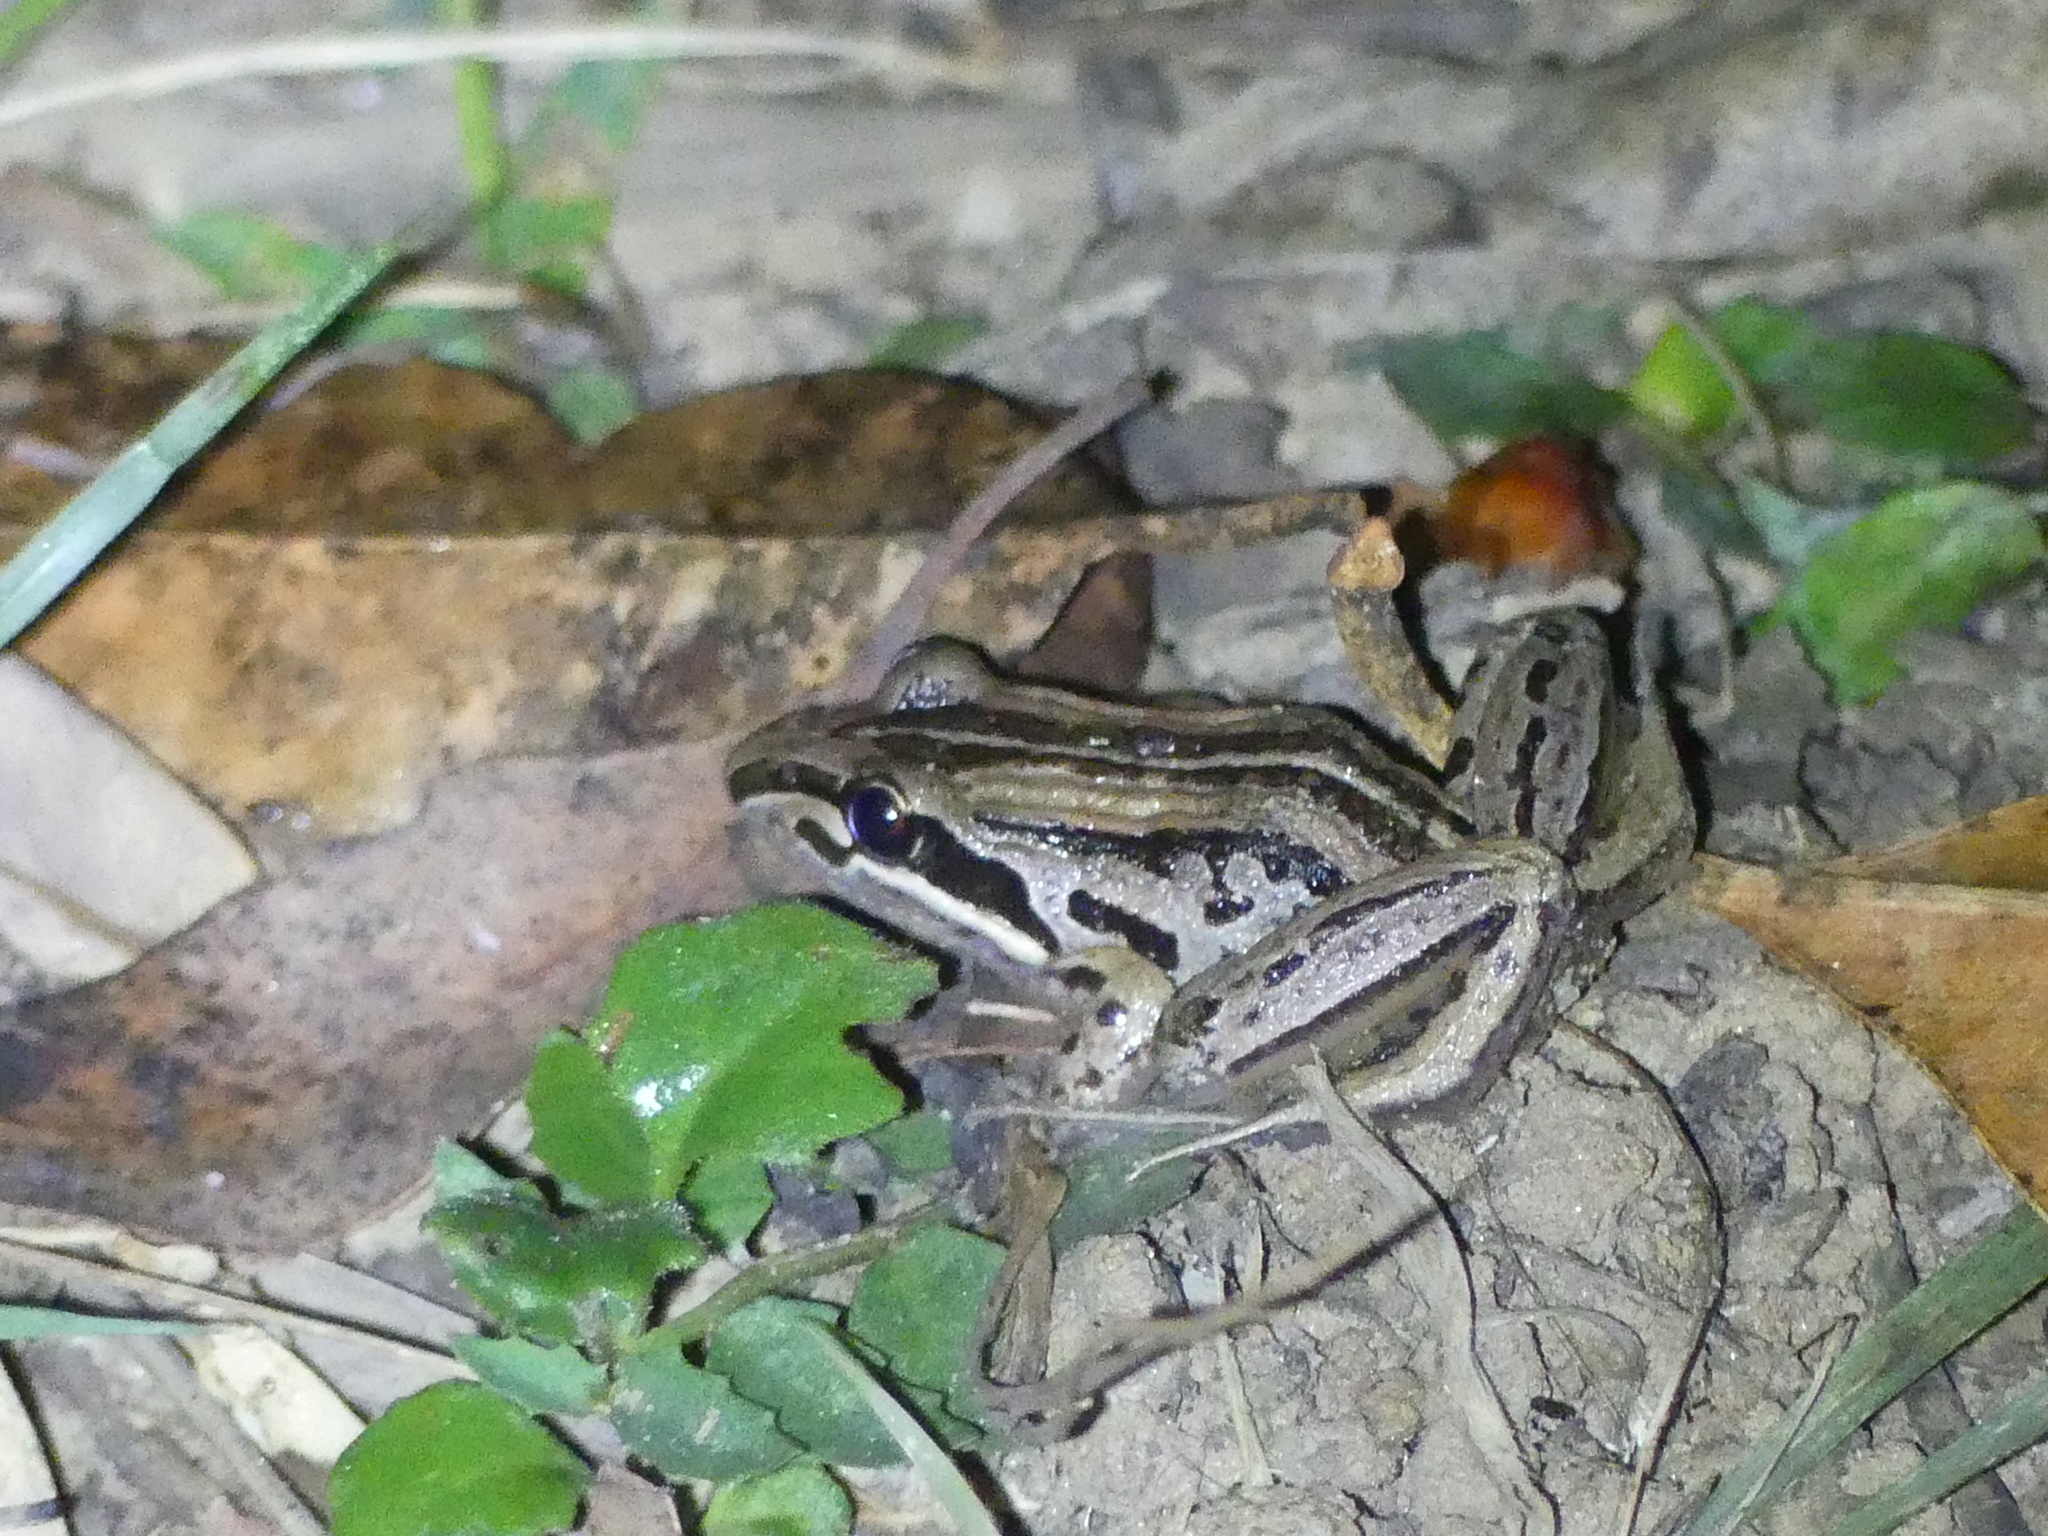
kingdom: Animalia
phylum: Chordata
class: Amphibia
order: Anura
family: Limnodynastidae
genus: Limnodynastes
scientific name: Limnodynastes peronii
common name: Brown frog
